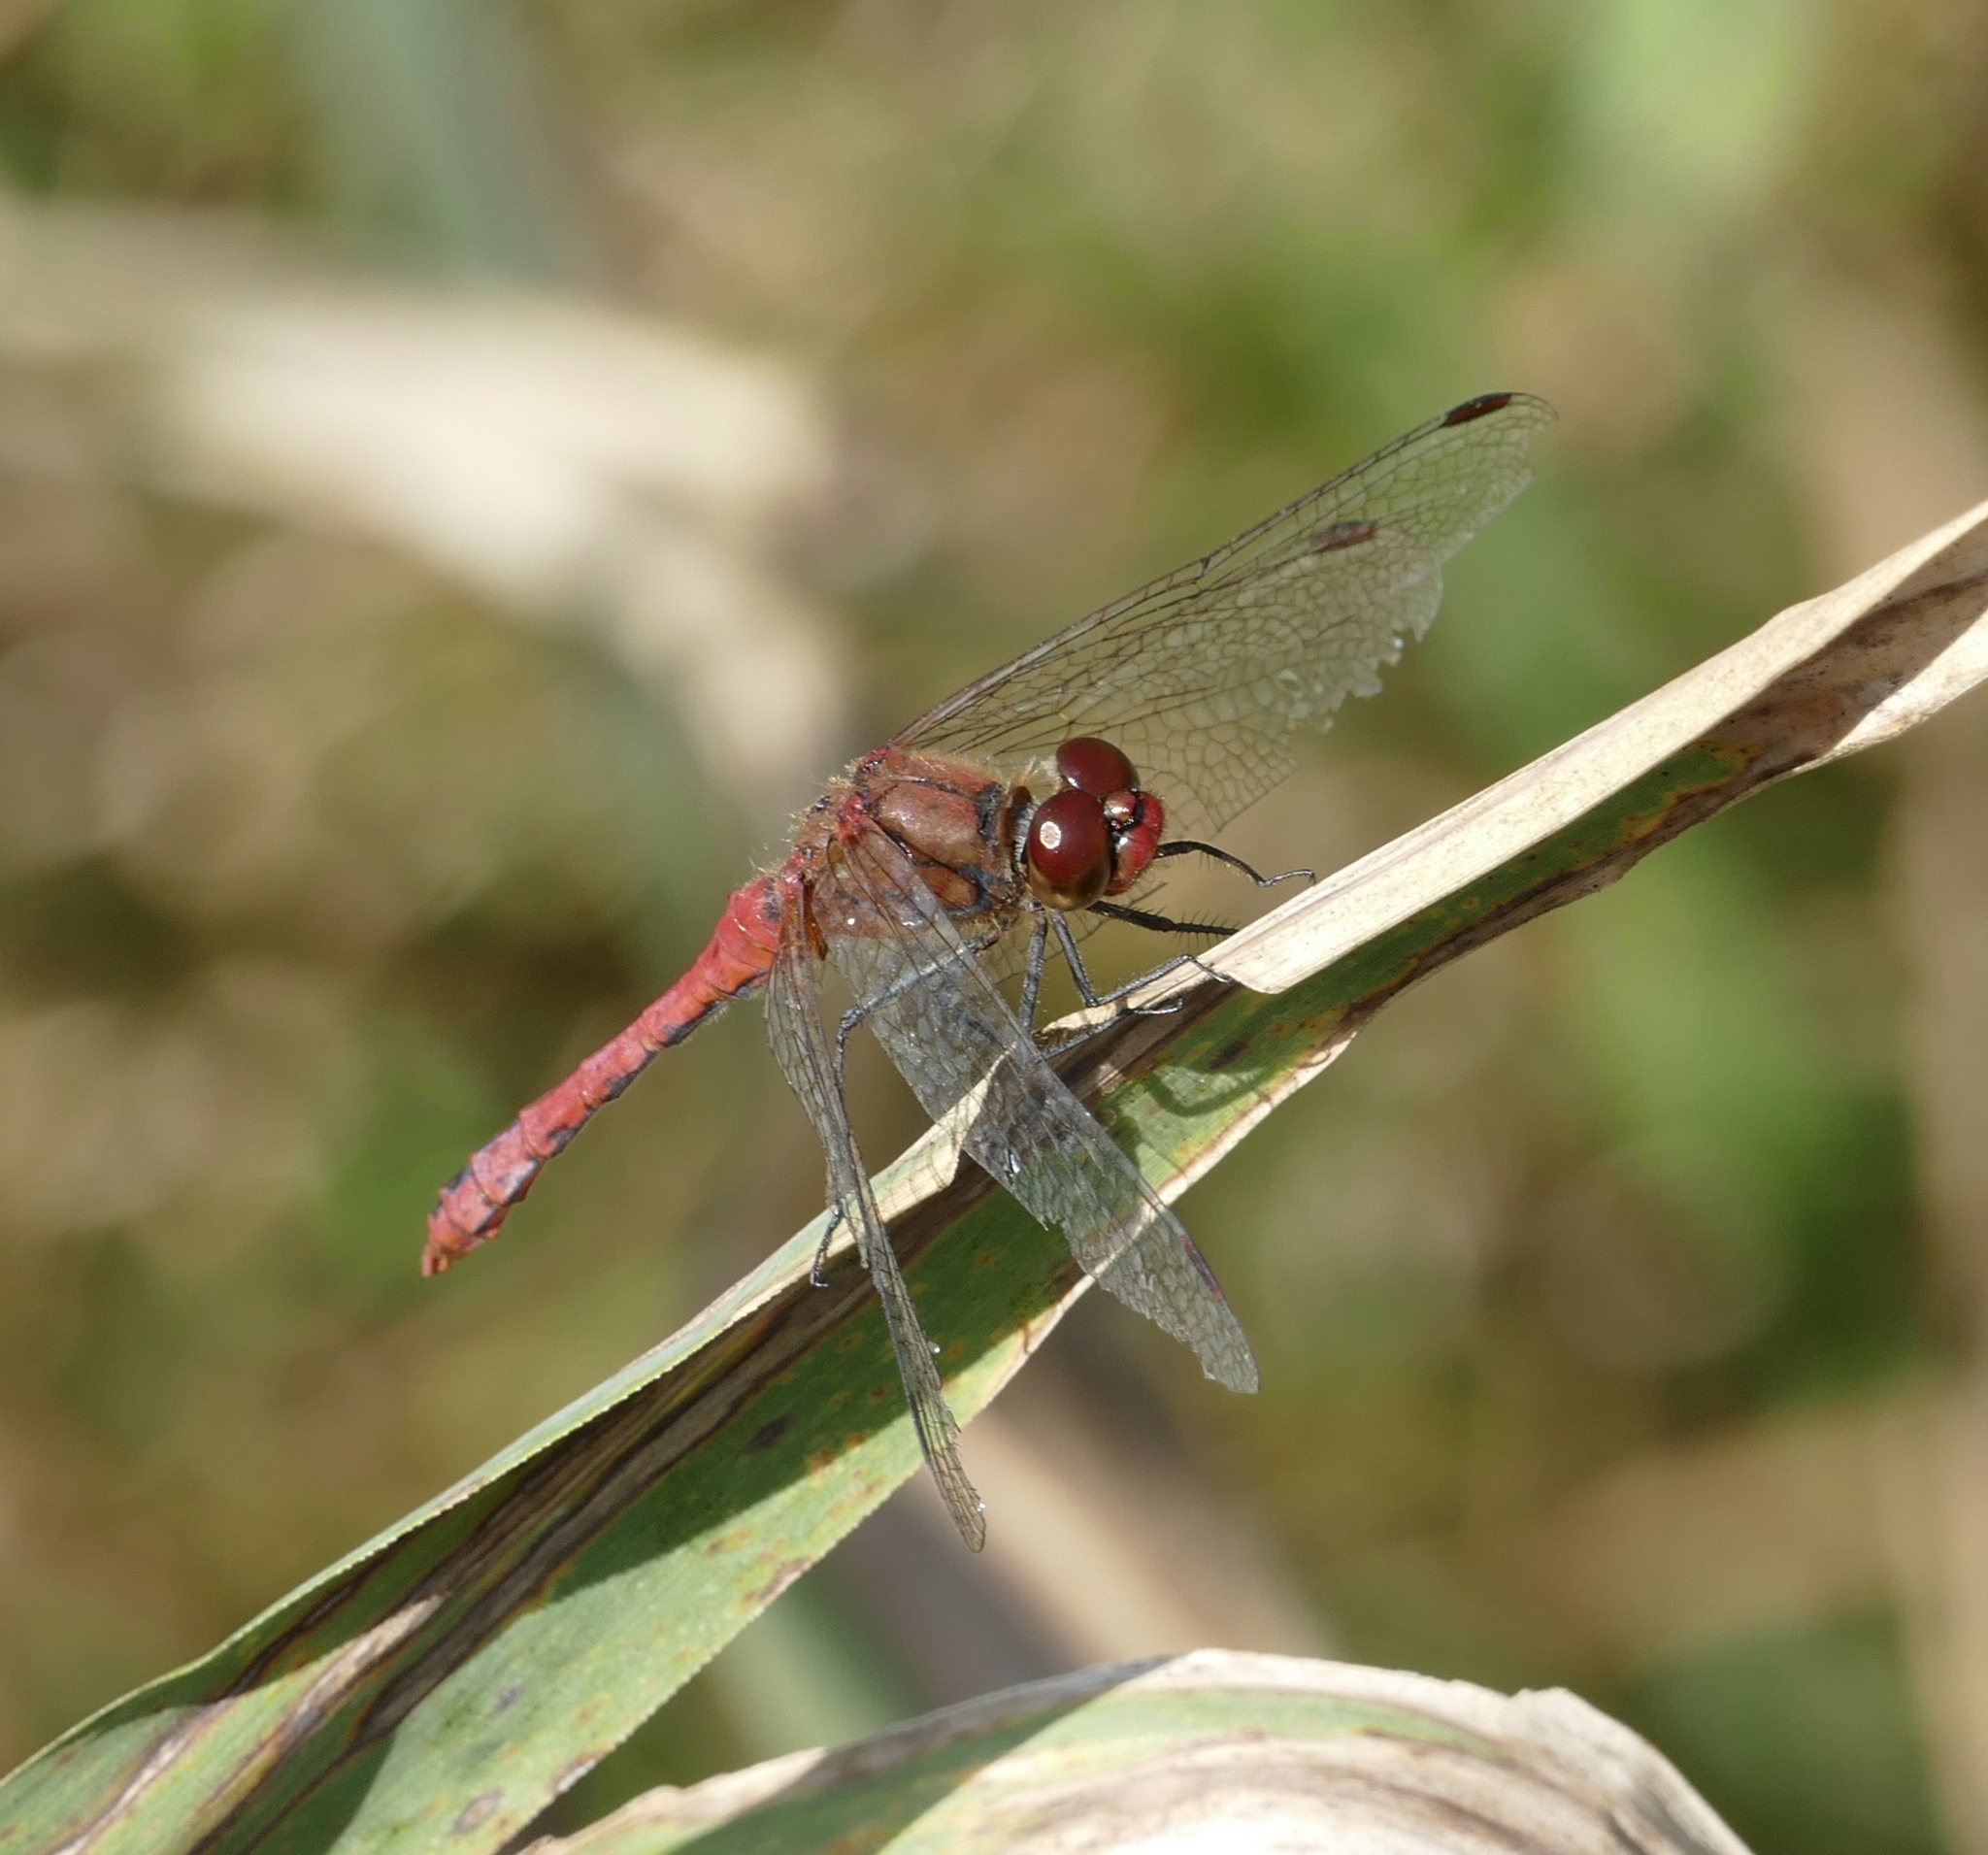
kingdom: Animalia
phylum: Arthropoda
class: Insecta
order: Odonata
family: Libellulidae
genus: Sympetrum
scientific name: Sympetrum sanguineum
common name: Ruddy darter
